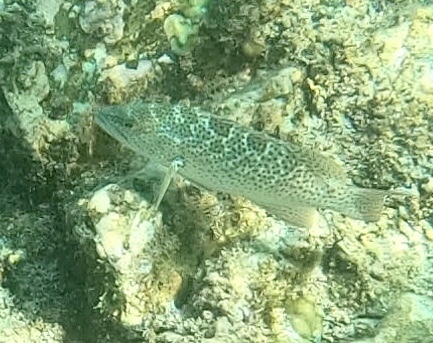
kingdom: Animalia
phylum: Chordata
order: Perciformes
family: Serranidae
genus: Mycteroperca
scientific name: Mycteroperca rosacea
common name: Leopard grouper
